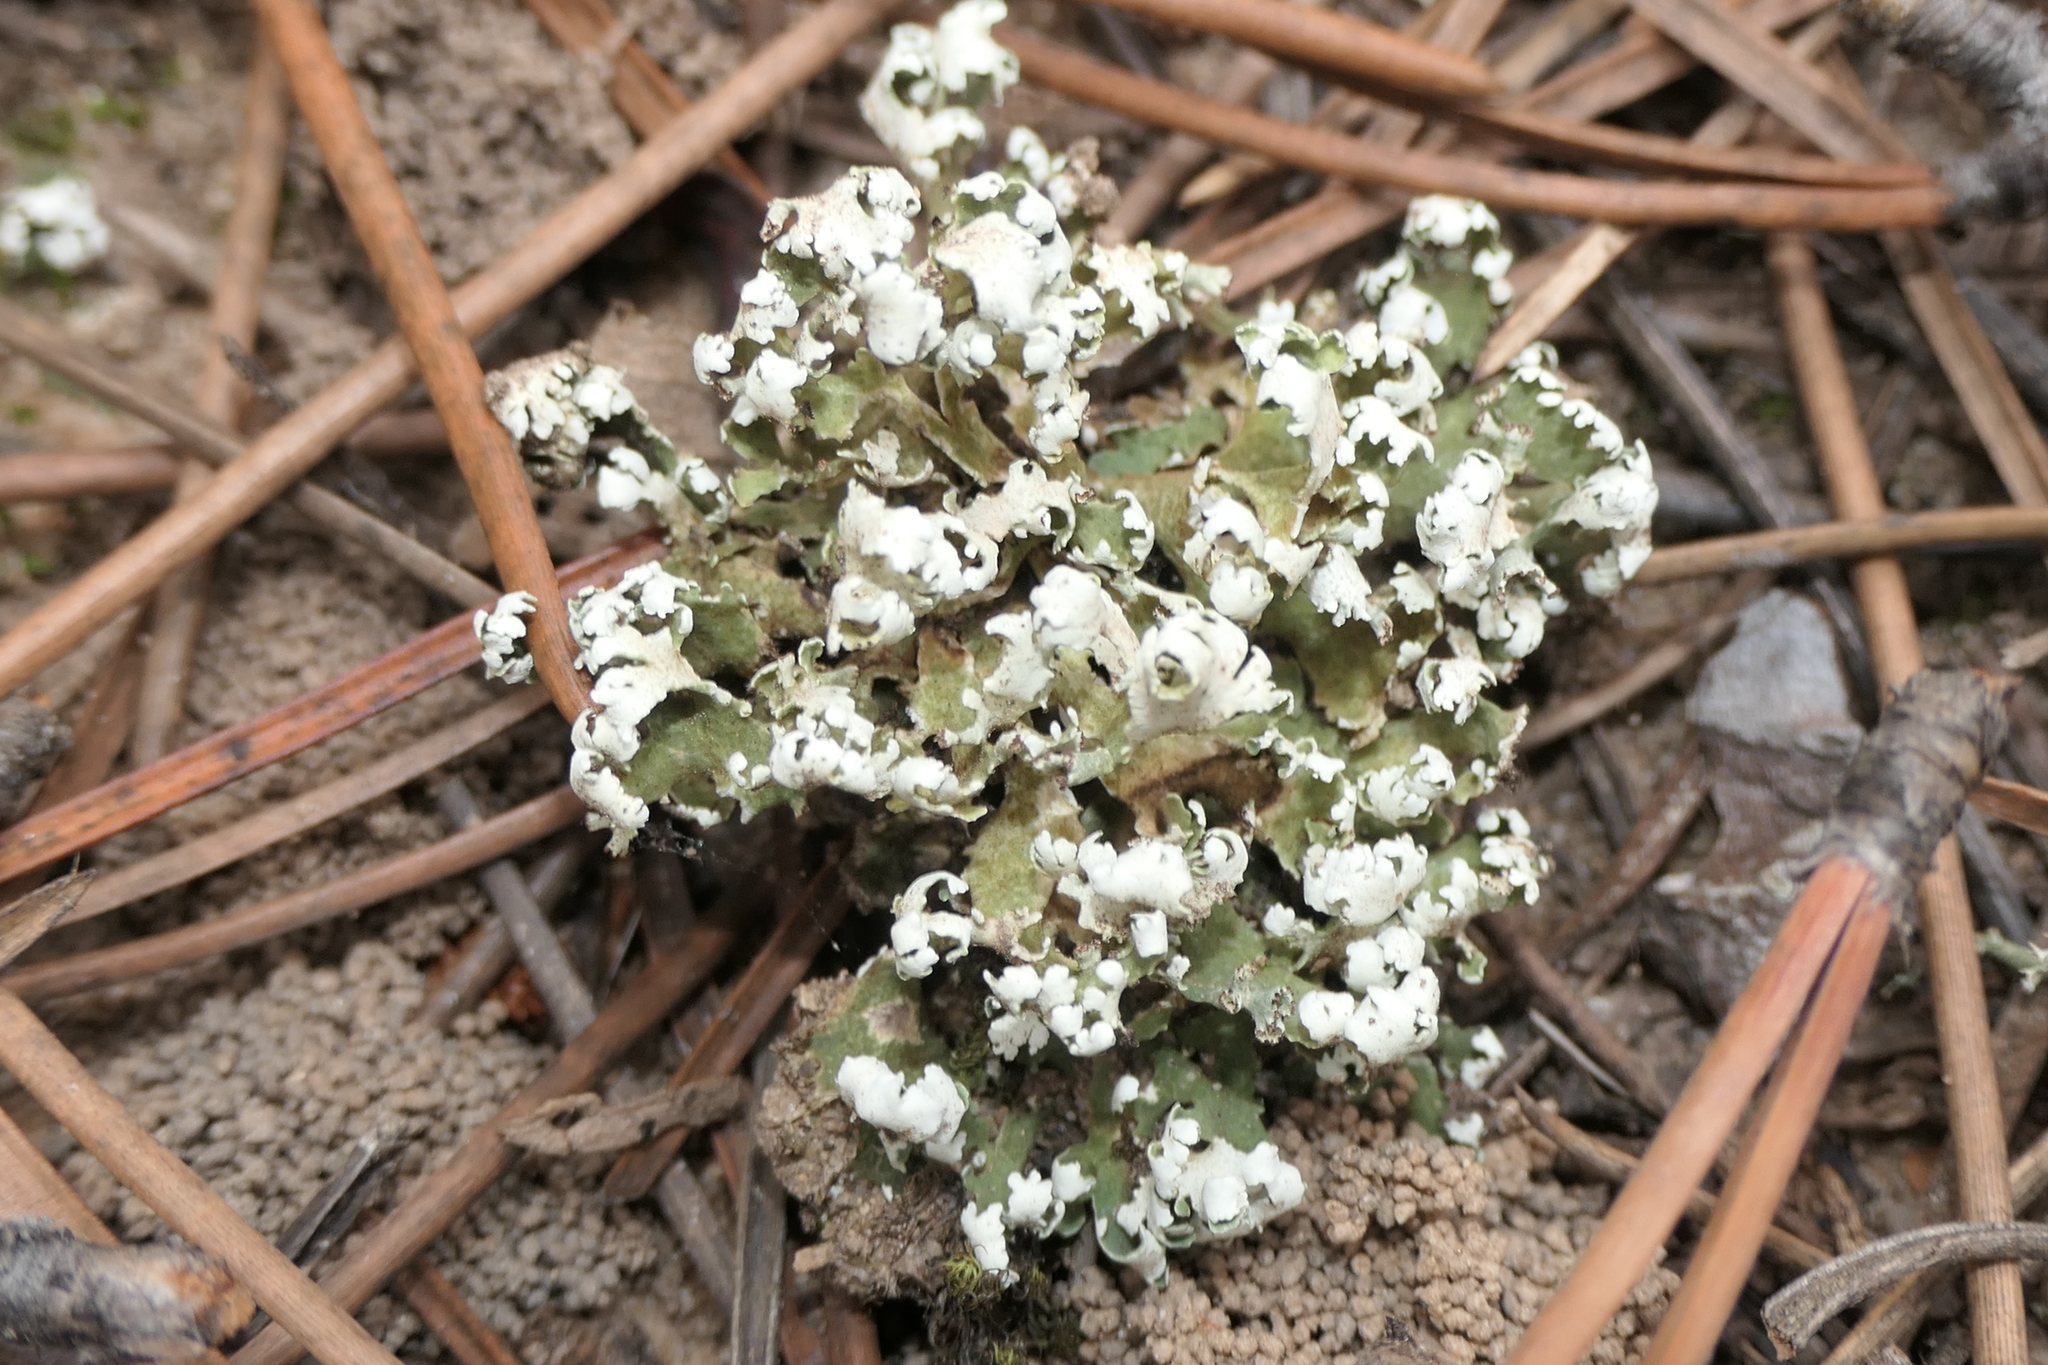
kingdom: Fungi
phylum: Ascomycota
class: Lecanoromycetes
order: Lecanorales
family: Cladoniaceae
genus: Cladonia
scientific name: Cladonia foliacea
